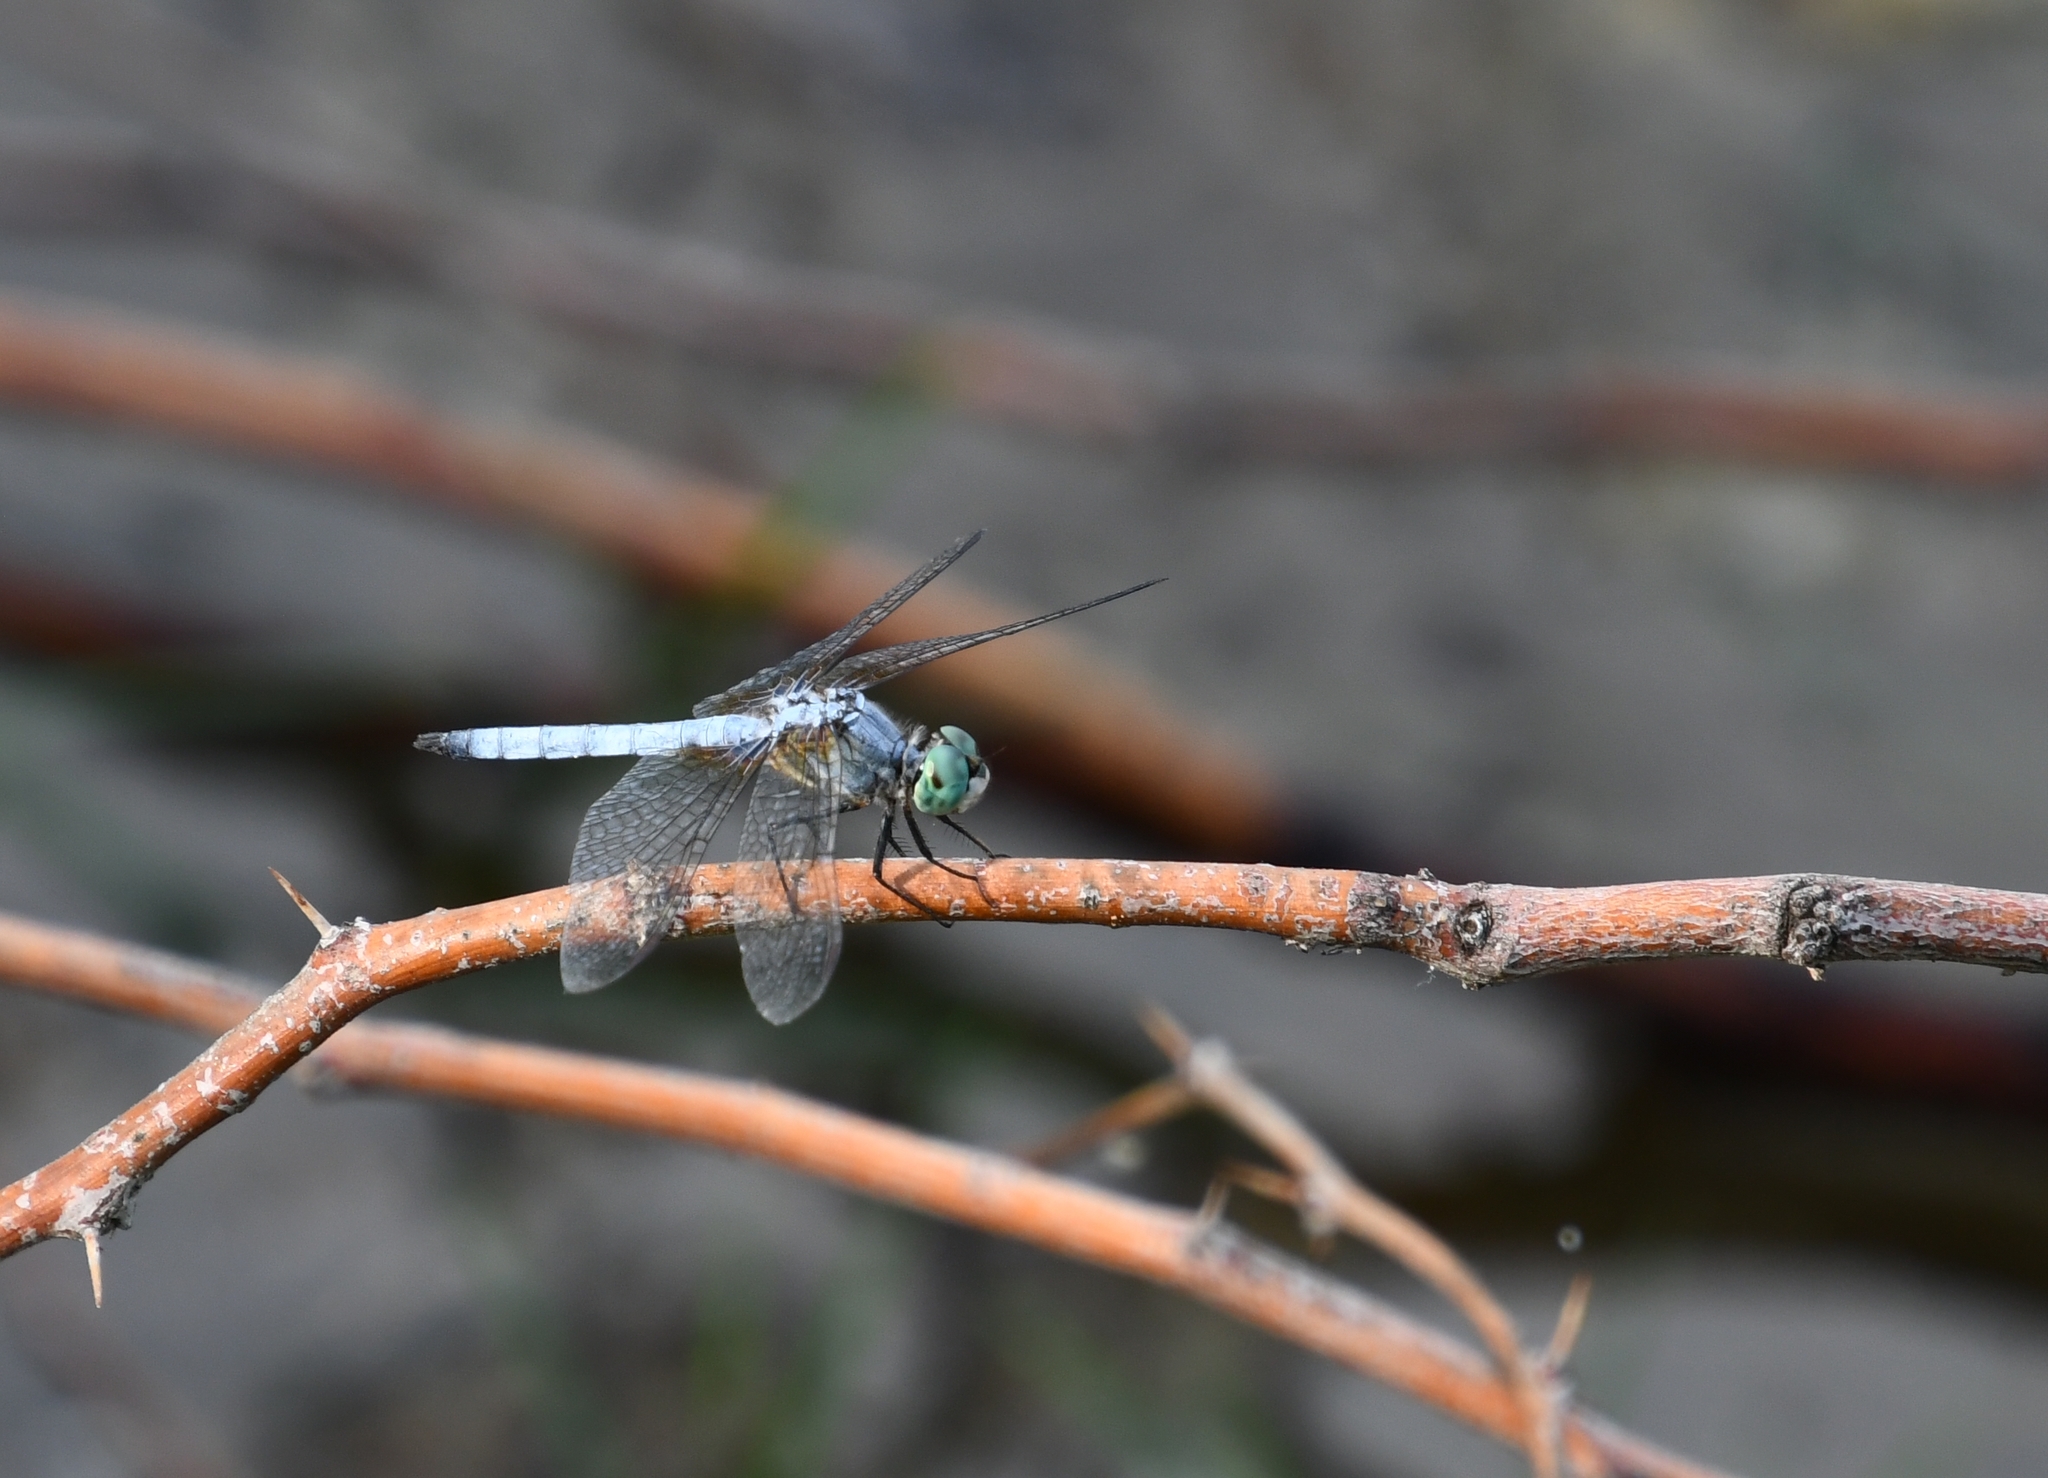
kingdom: Animalia
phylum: Arthropoda
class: Insecta
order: Odonata
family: Libellulidae
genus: Pachydiplax
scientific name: Pachydiplax longipennis
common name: Blue dasher
